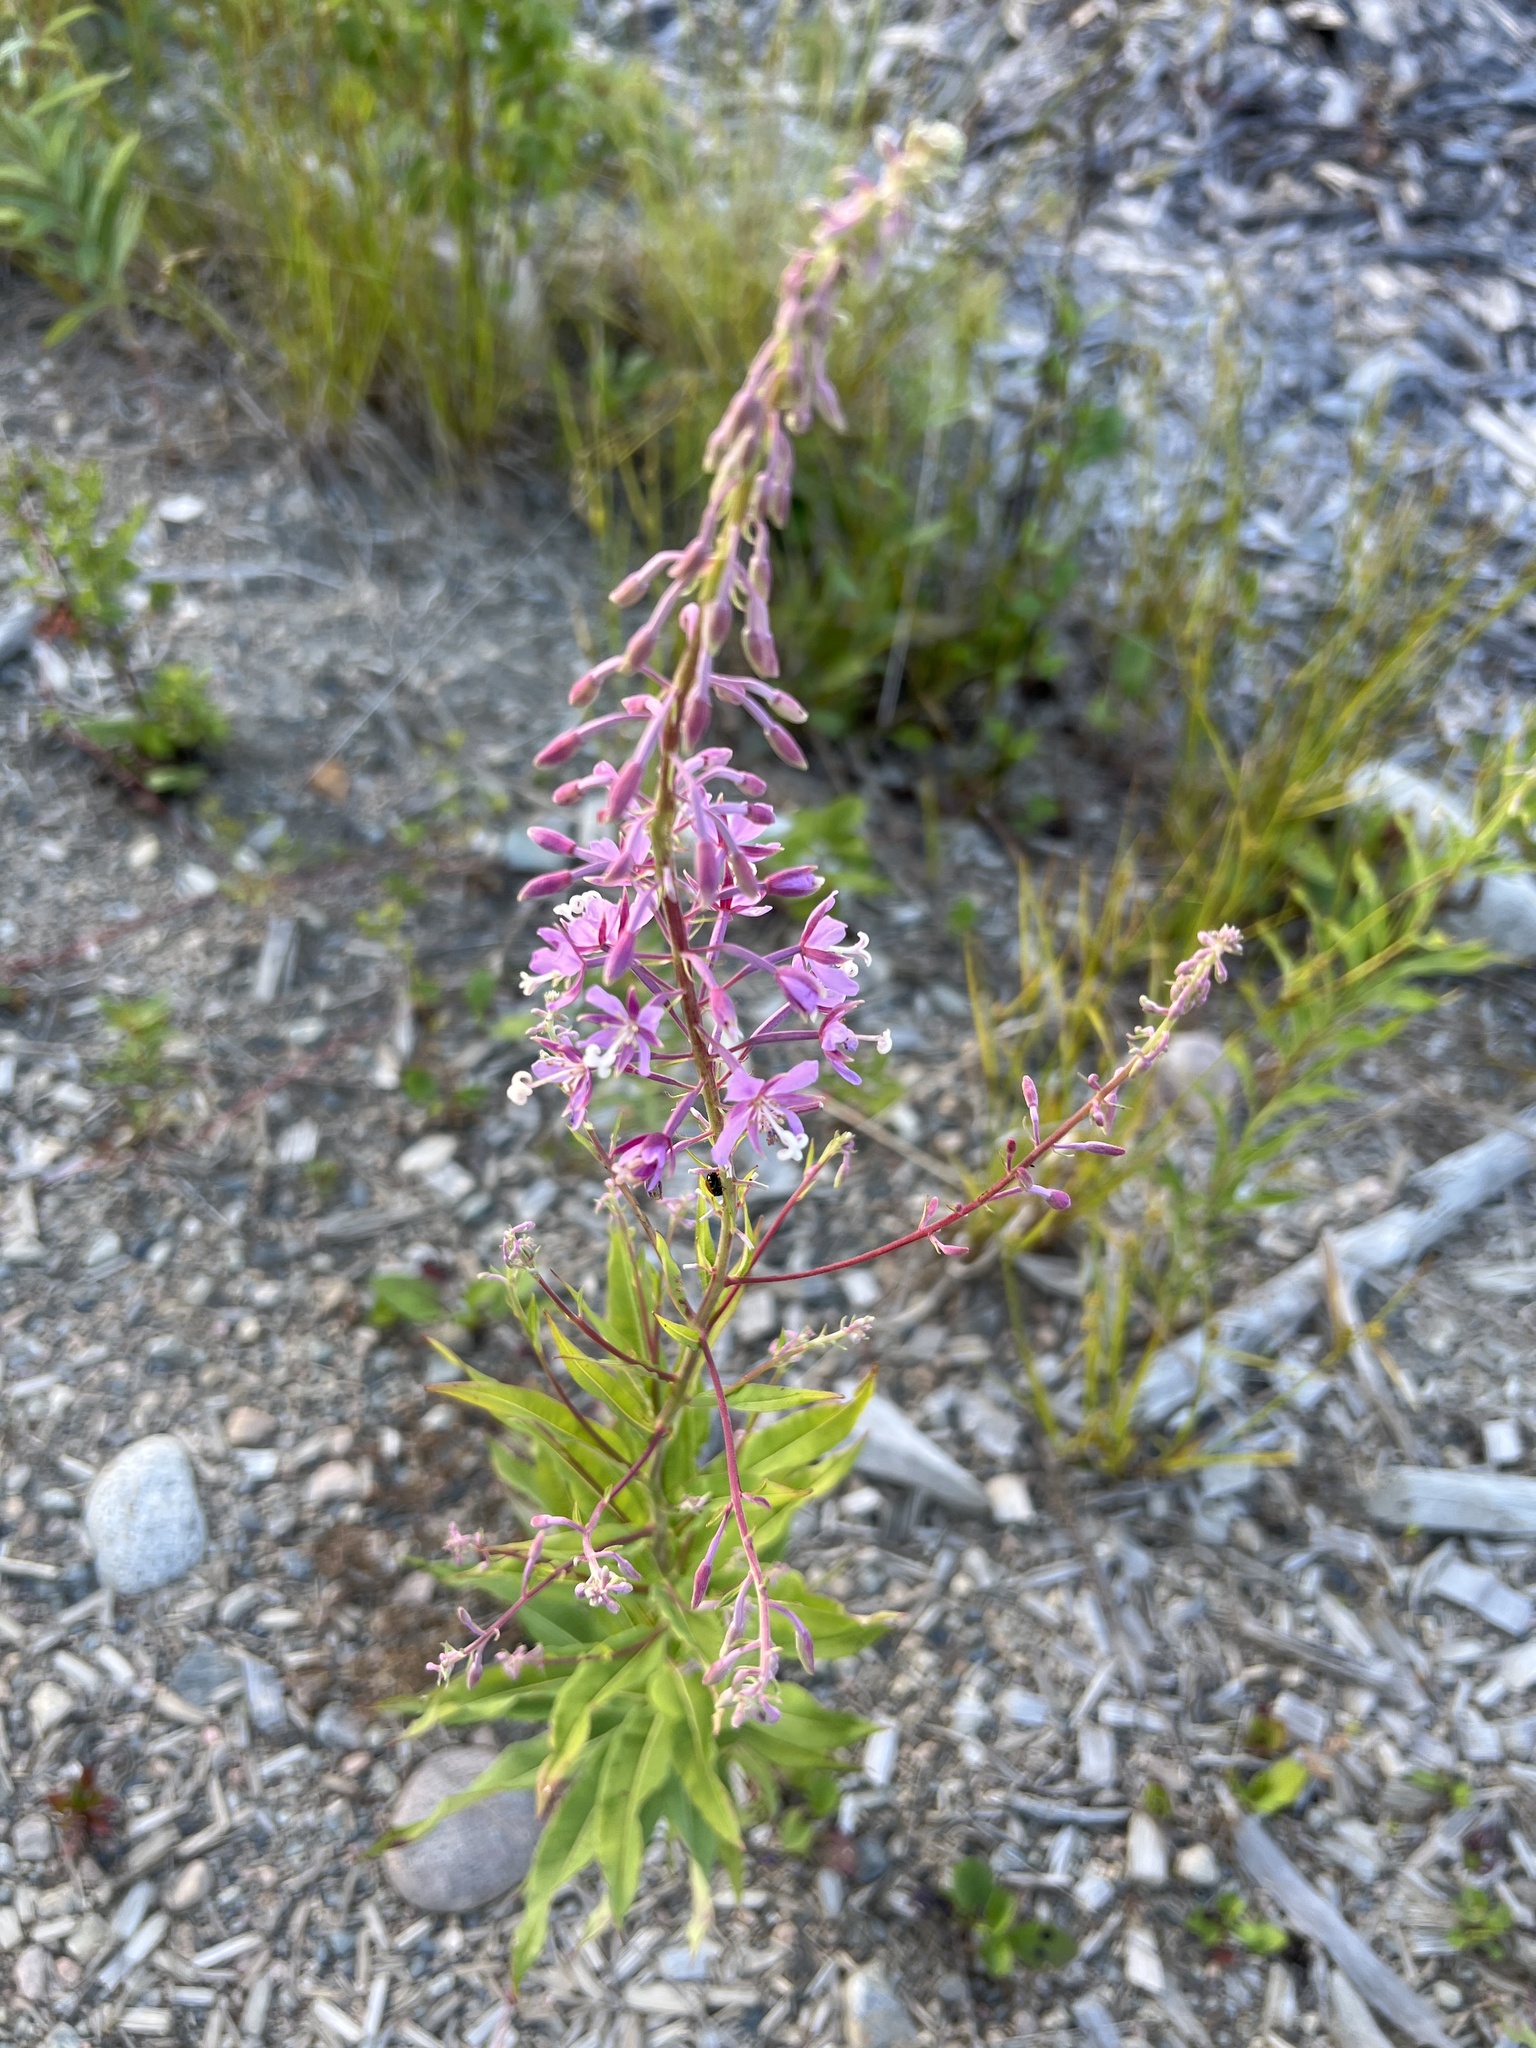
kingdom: Plantae
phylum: Tracheophyta
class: Magnoliopsida
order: Myrtales
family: Onagraceae
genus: Chamaenerion
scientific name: Chamaenerion angustifolium
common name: Fireweed
